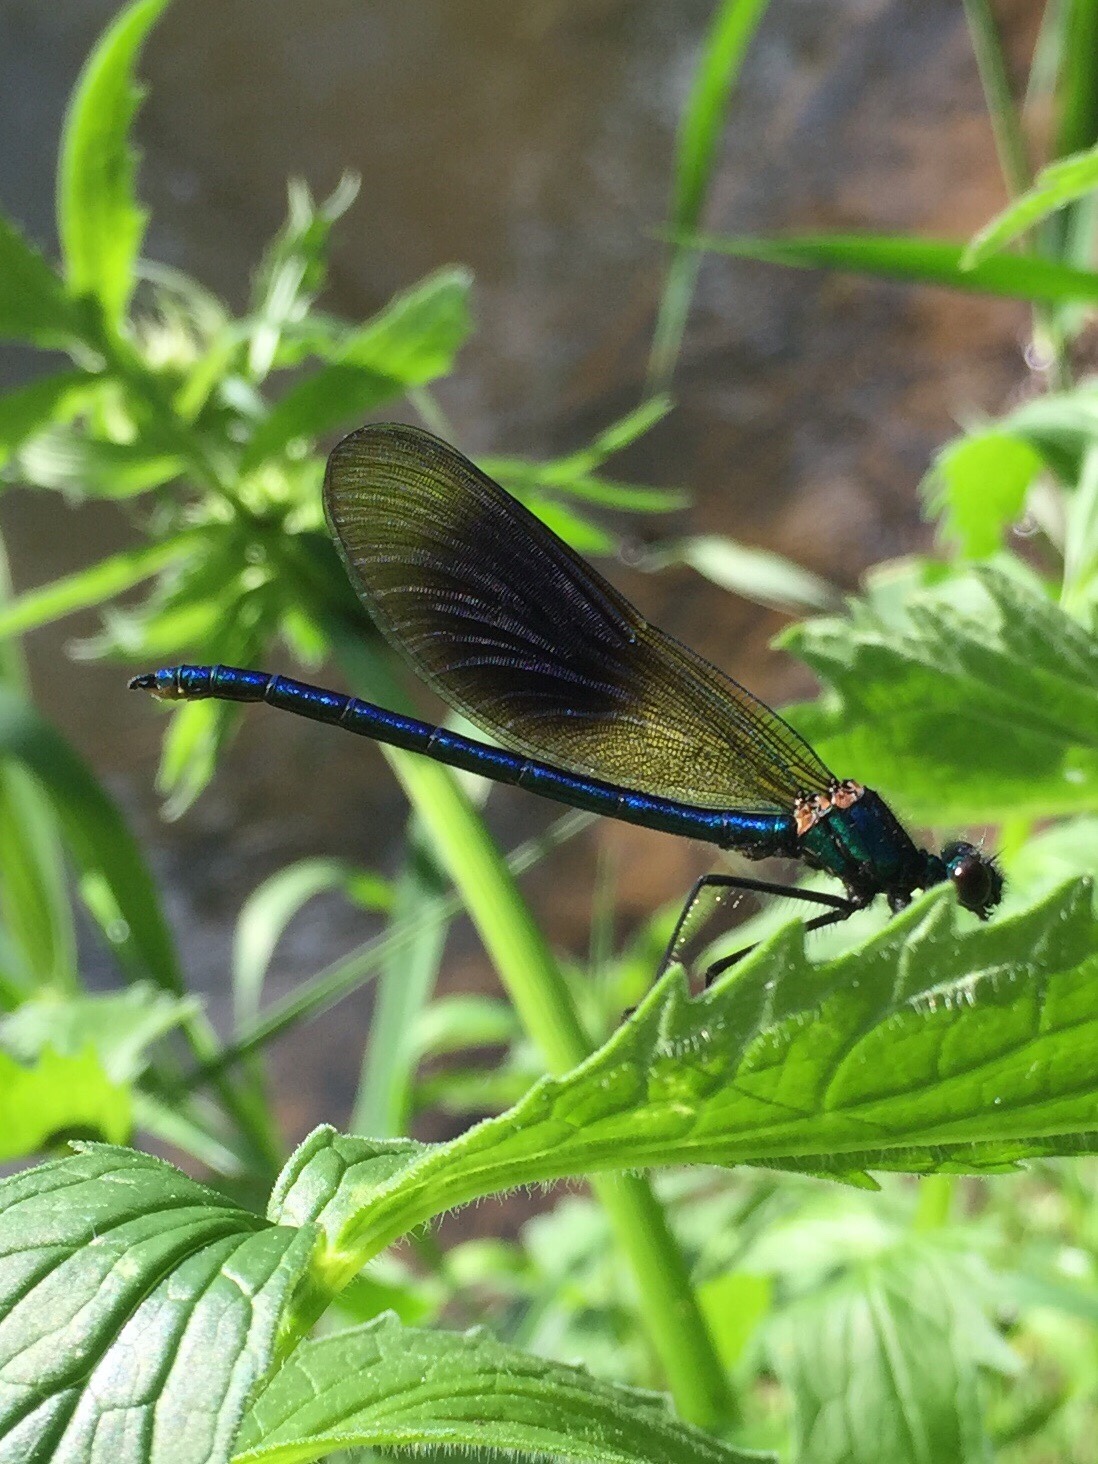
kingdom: Animalia
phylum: Arthropoda
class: Insecta
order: Odonata
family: Calopterygidae
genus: Calopteryx
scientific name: Calopteryx splendens
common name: Banded demoiselle
